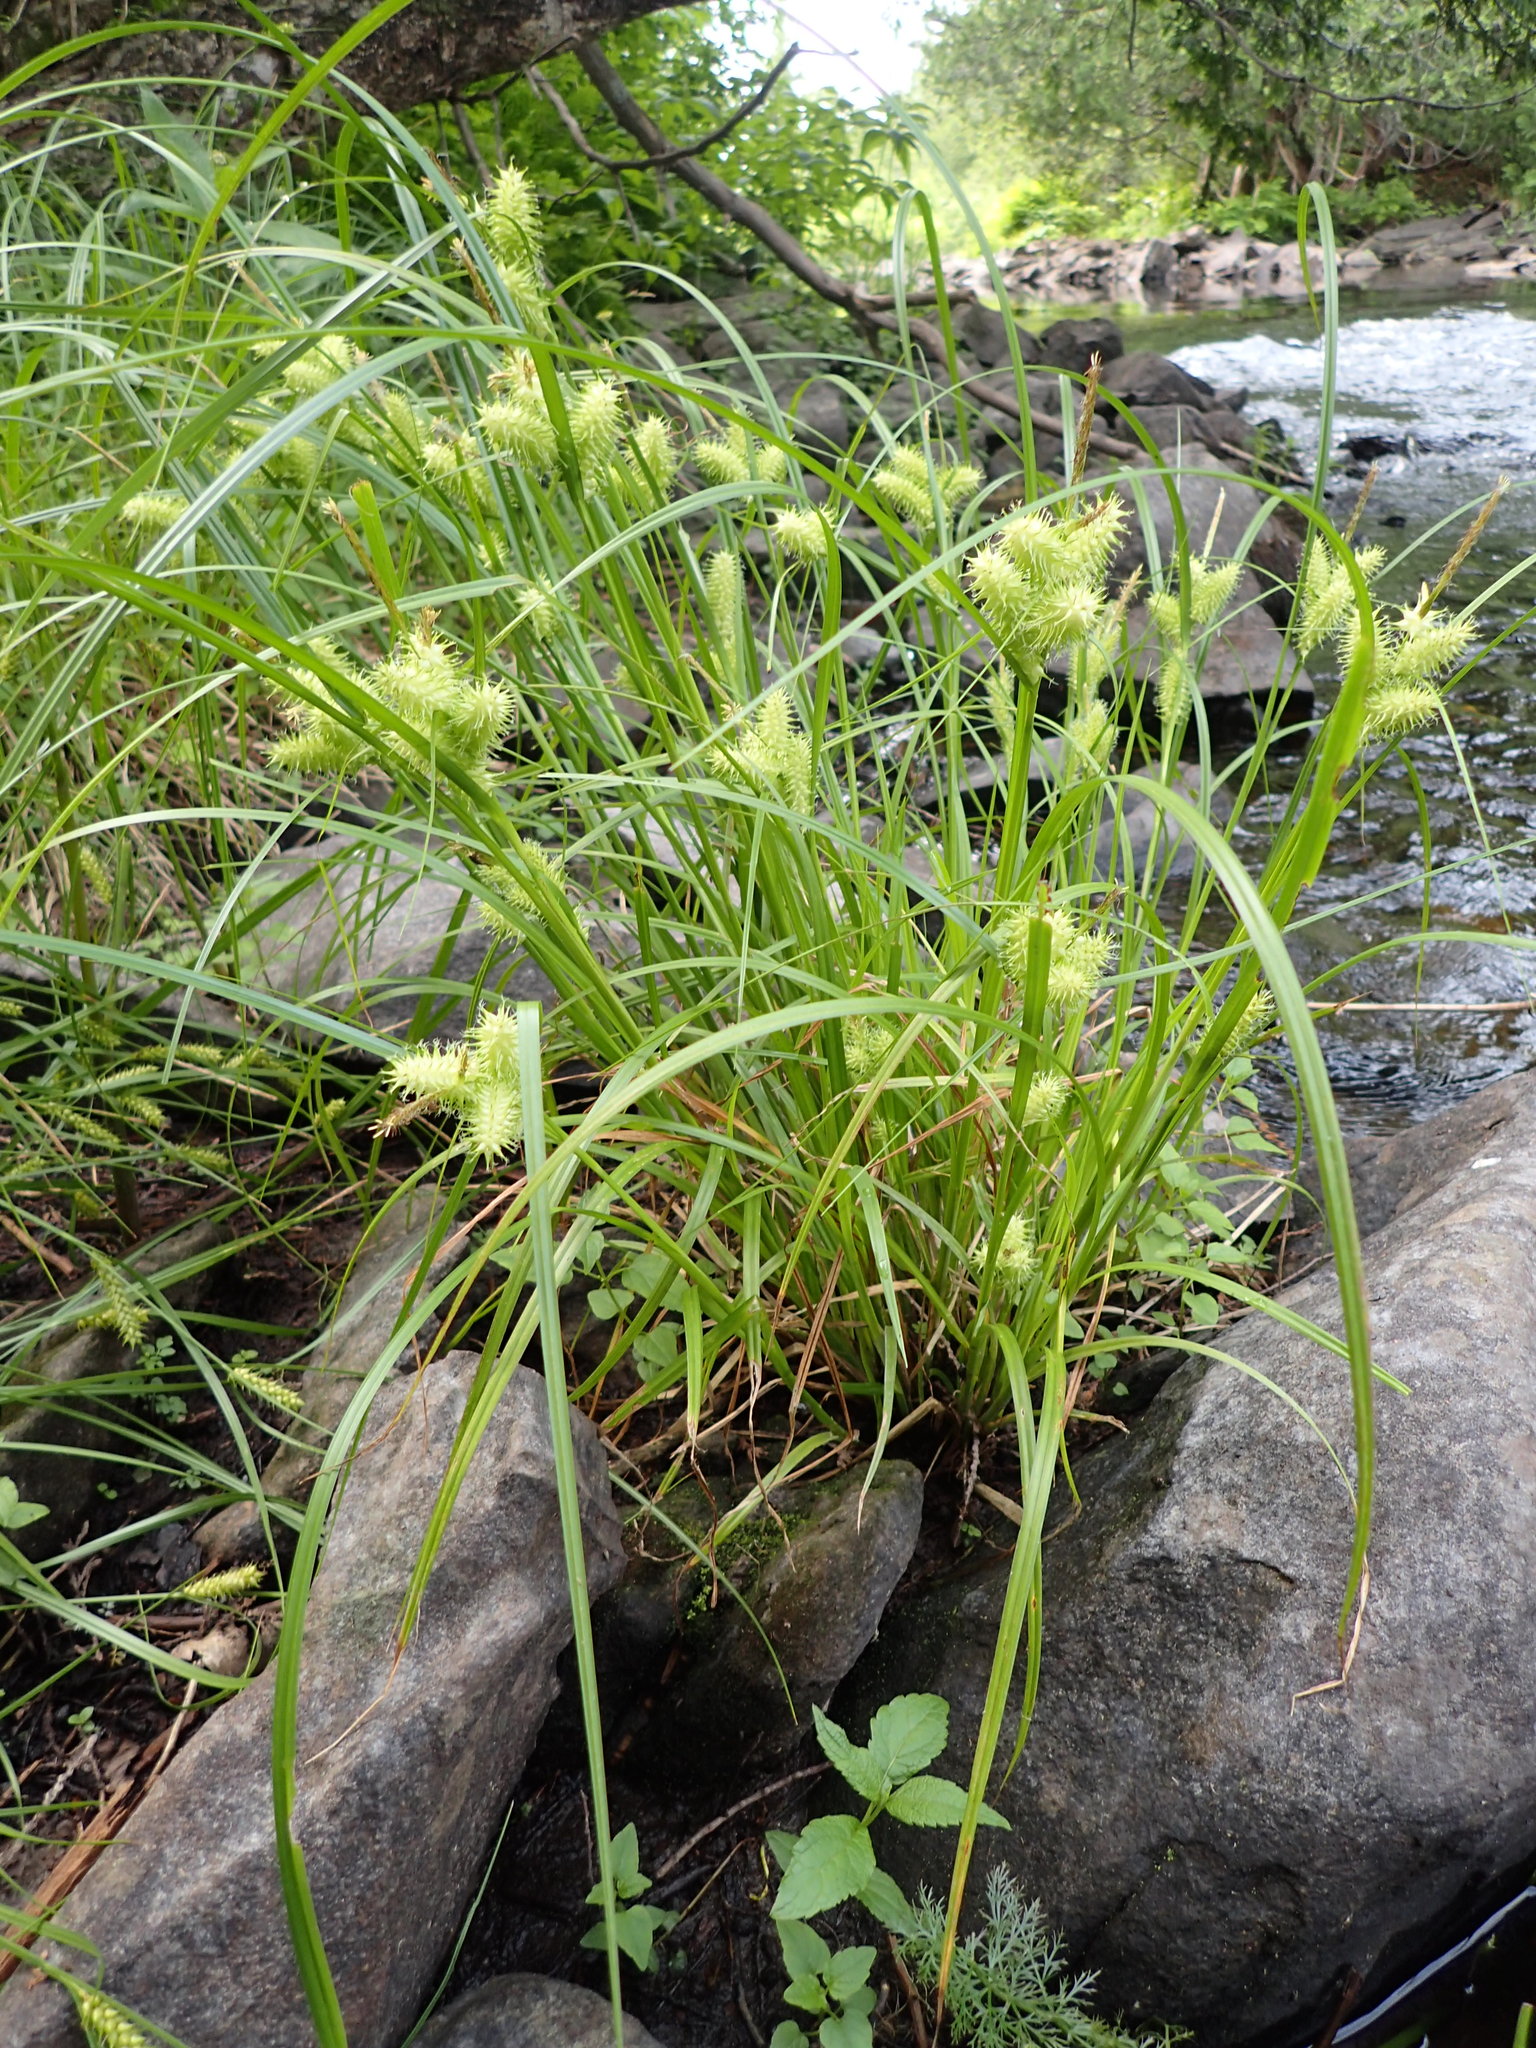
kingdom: Plantae
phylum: Tracheophyta
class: Liliopsida
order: Poales
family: Cyperaceae
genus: Carex
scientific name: Carex retrorsa
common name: Knot-sheath sedge
